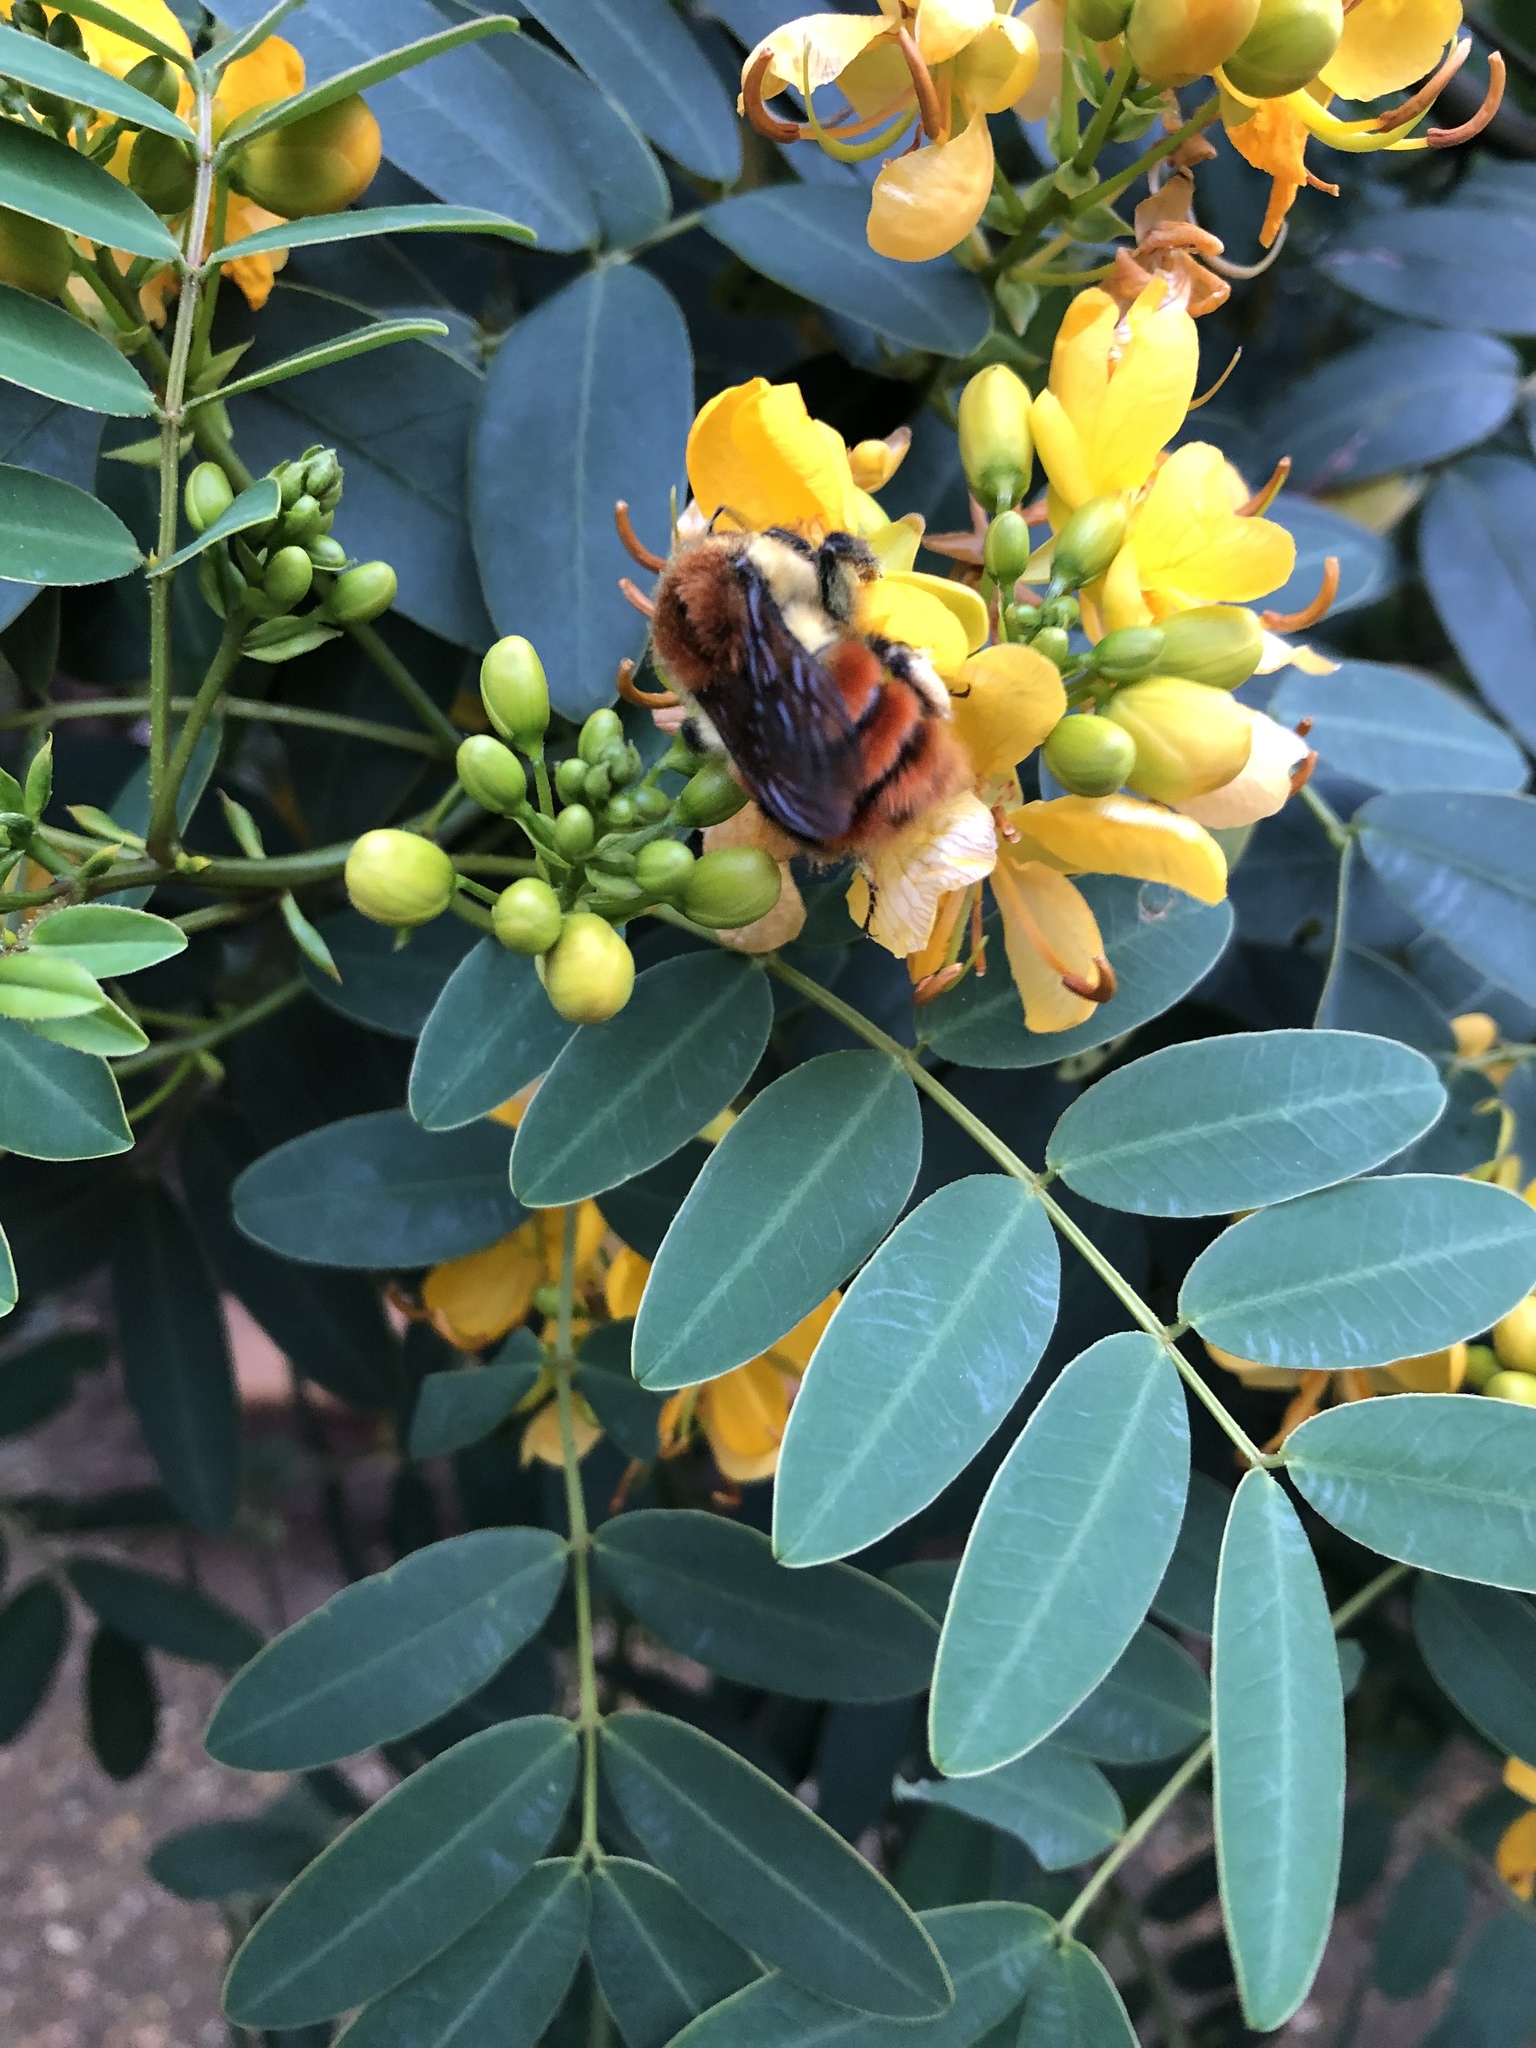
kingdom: Animalia
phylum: Arthropoda
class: Insecta
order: Hymenoptera
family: Apidae
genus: Bombus
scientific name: Bombus ephippiatus
